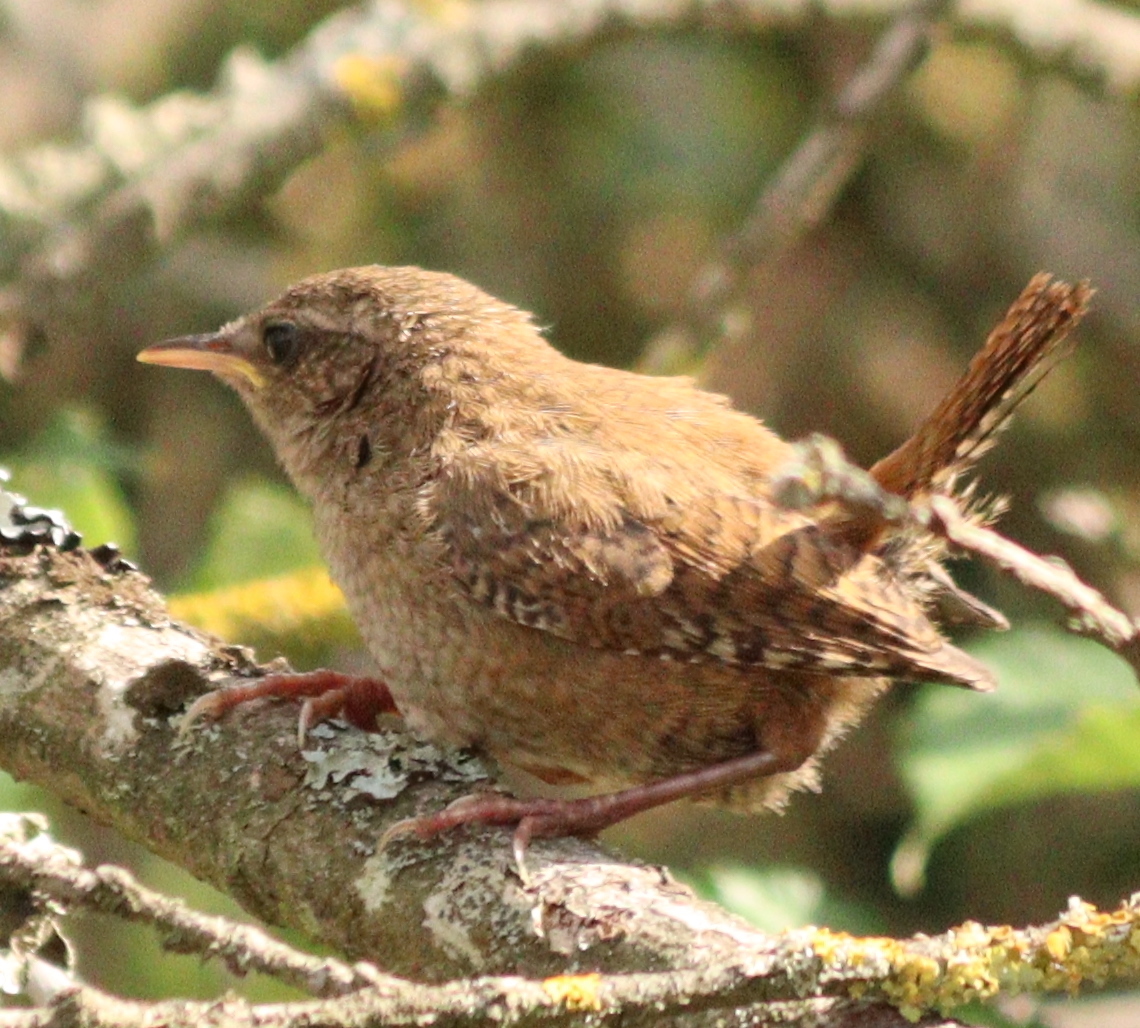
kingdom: Animalia
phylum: Chordata
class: Aves
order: Passeriformes
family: Troglodytidae
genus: Troglodytes
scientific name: Troglodytes troglodytes
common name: Eurasian wren
